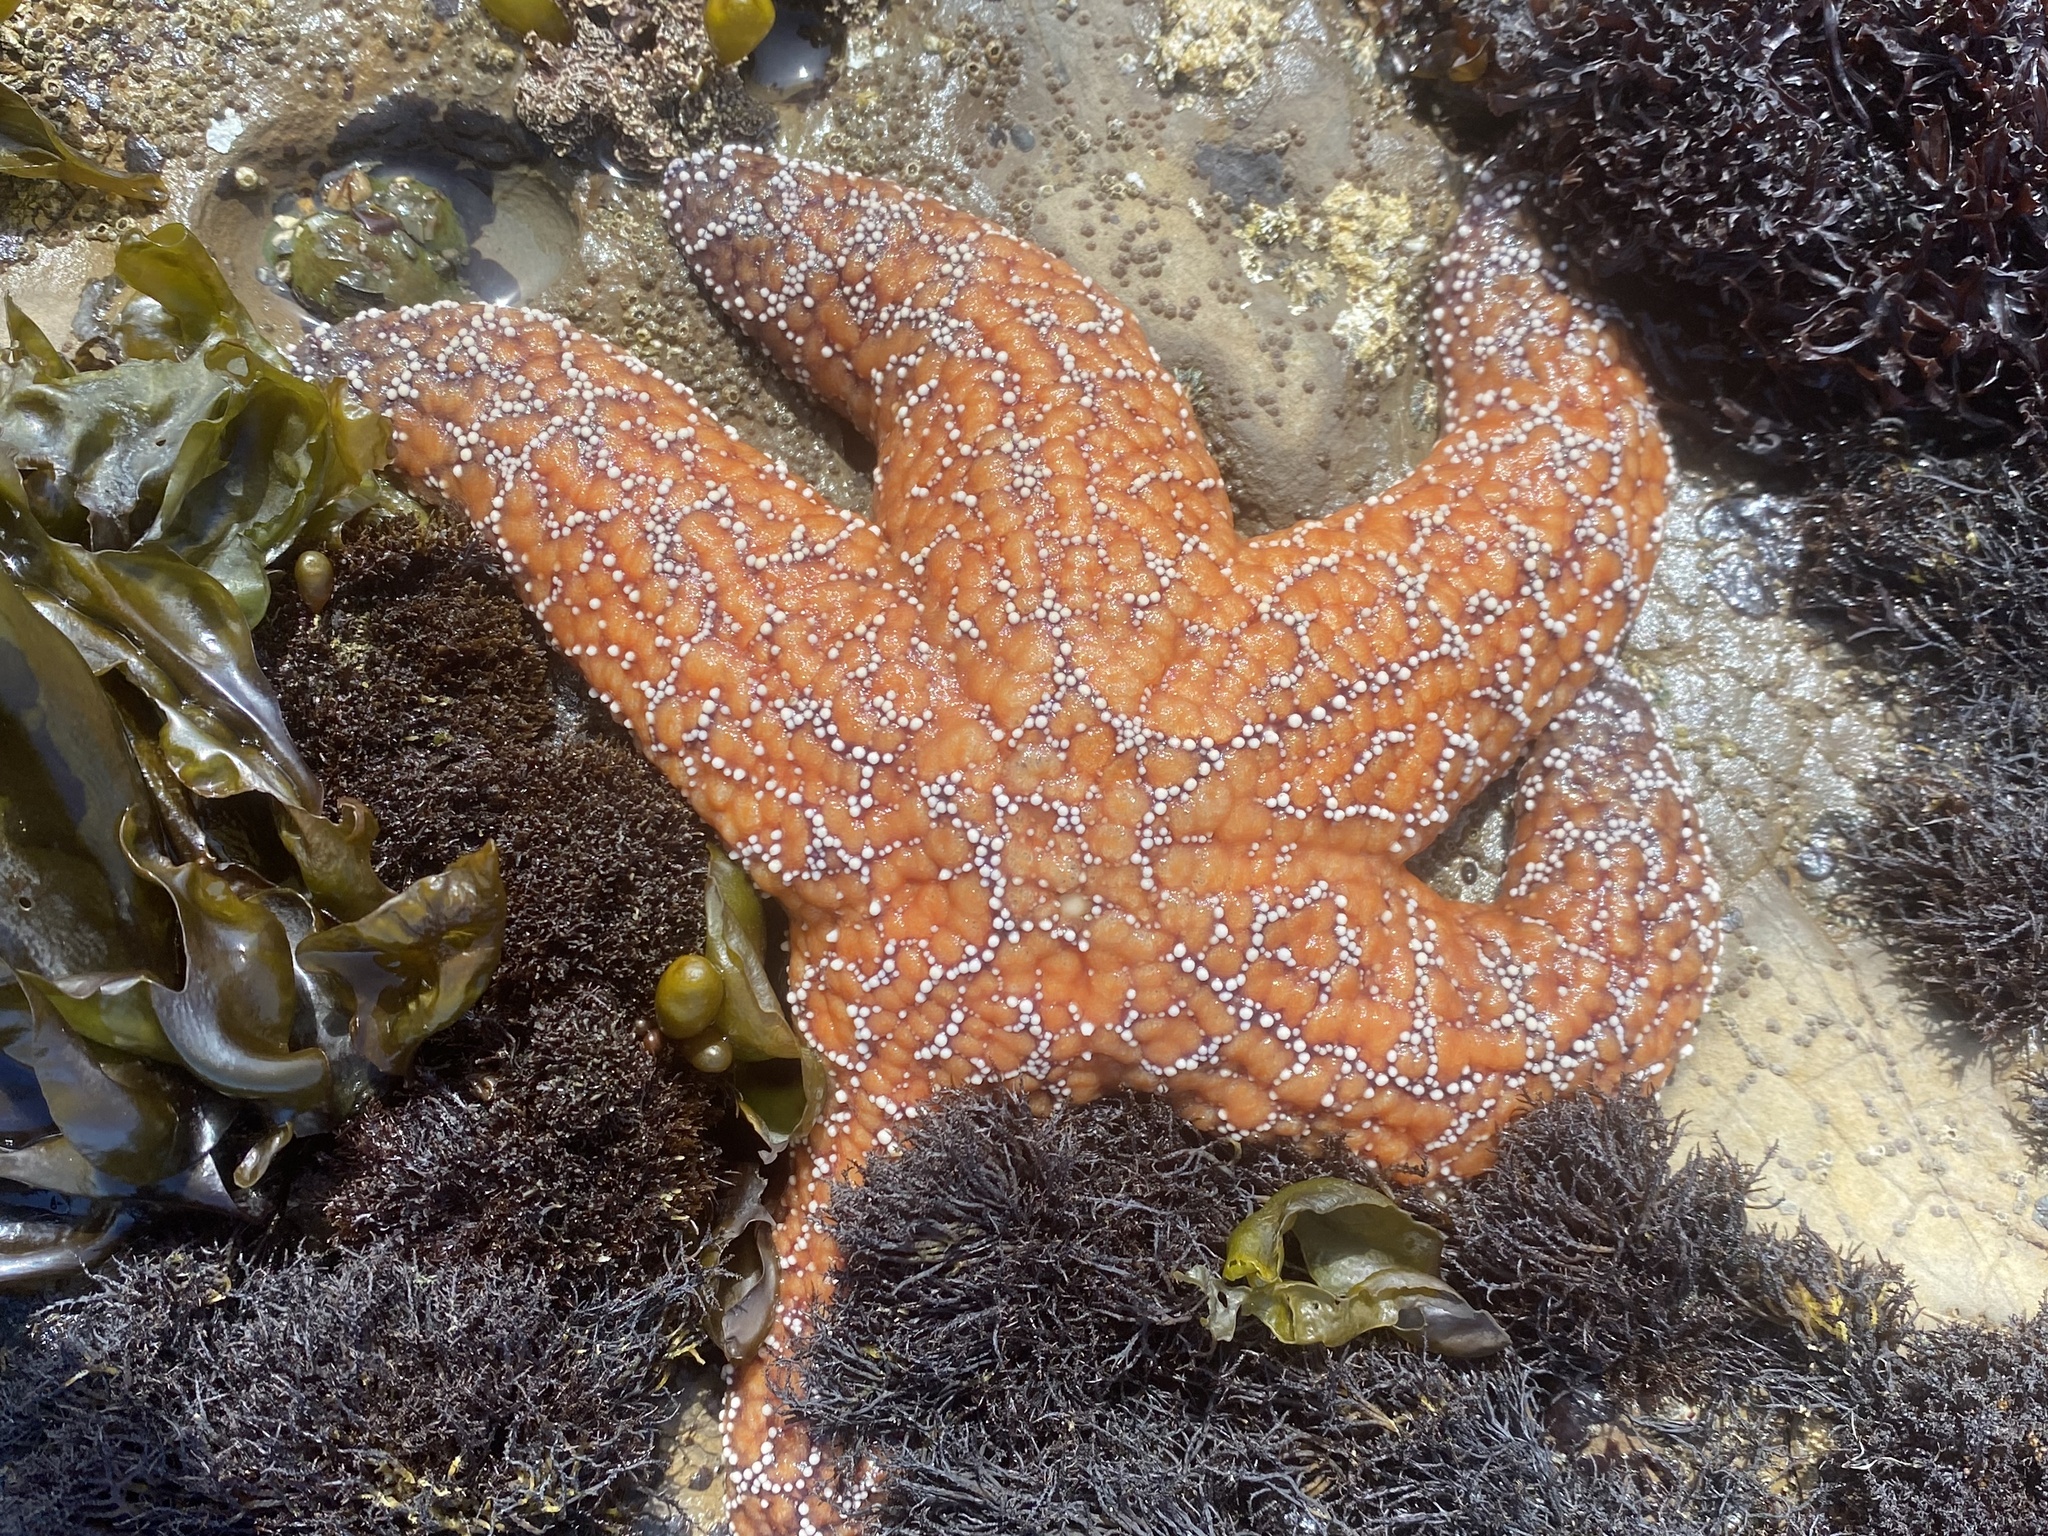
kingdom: Animalia
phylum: Echinodermata
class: Asteroidea
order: Forcipulatida
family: Asteriidae
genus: Pisaster
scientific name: Pisaster ochraceus
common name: Ochre stars
